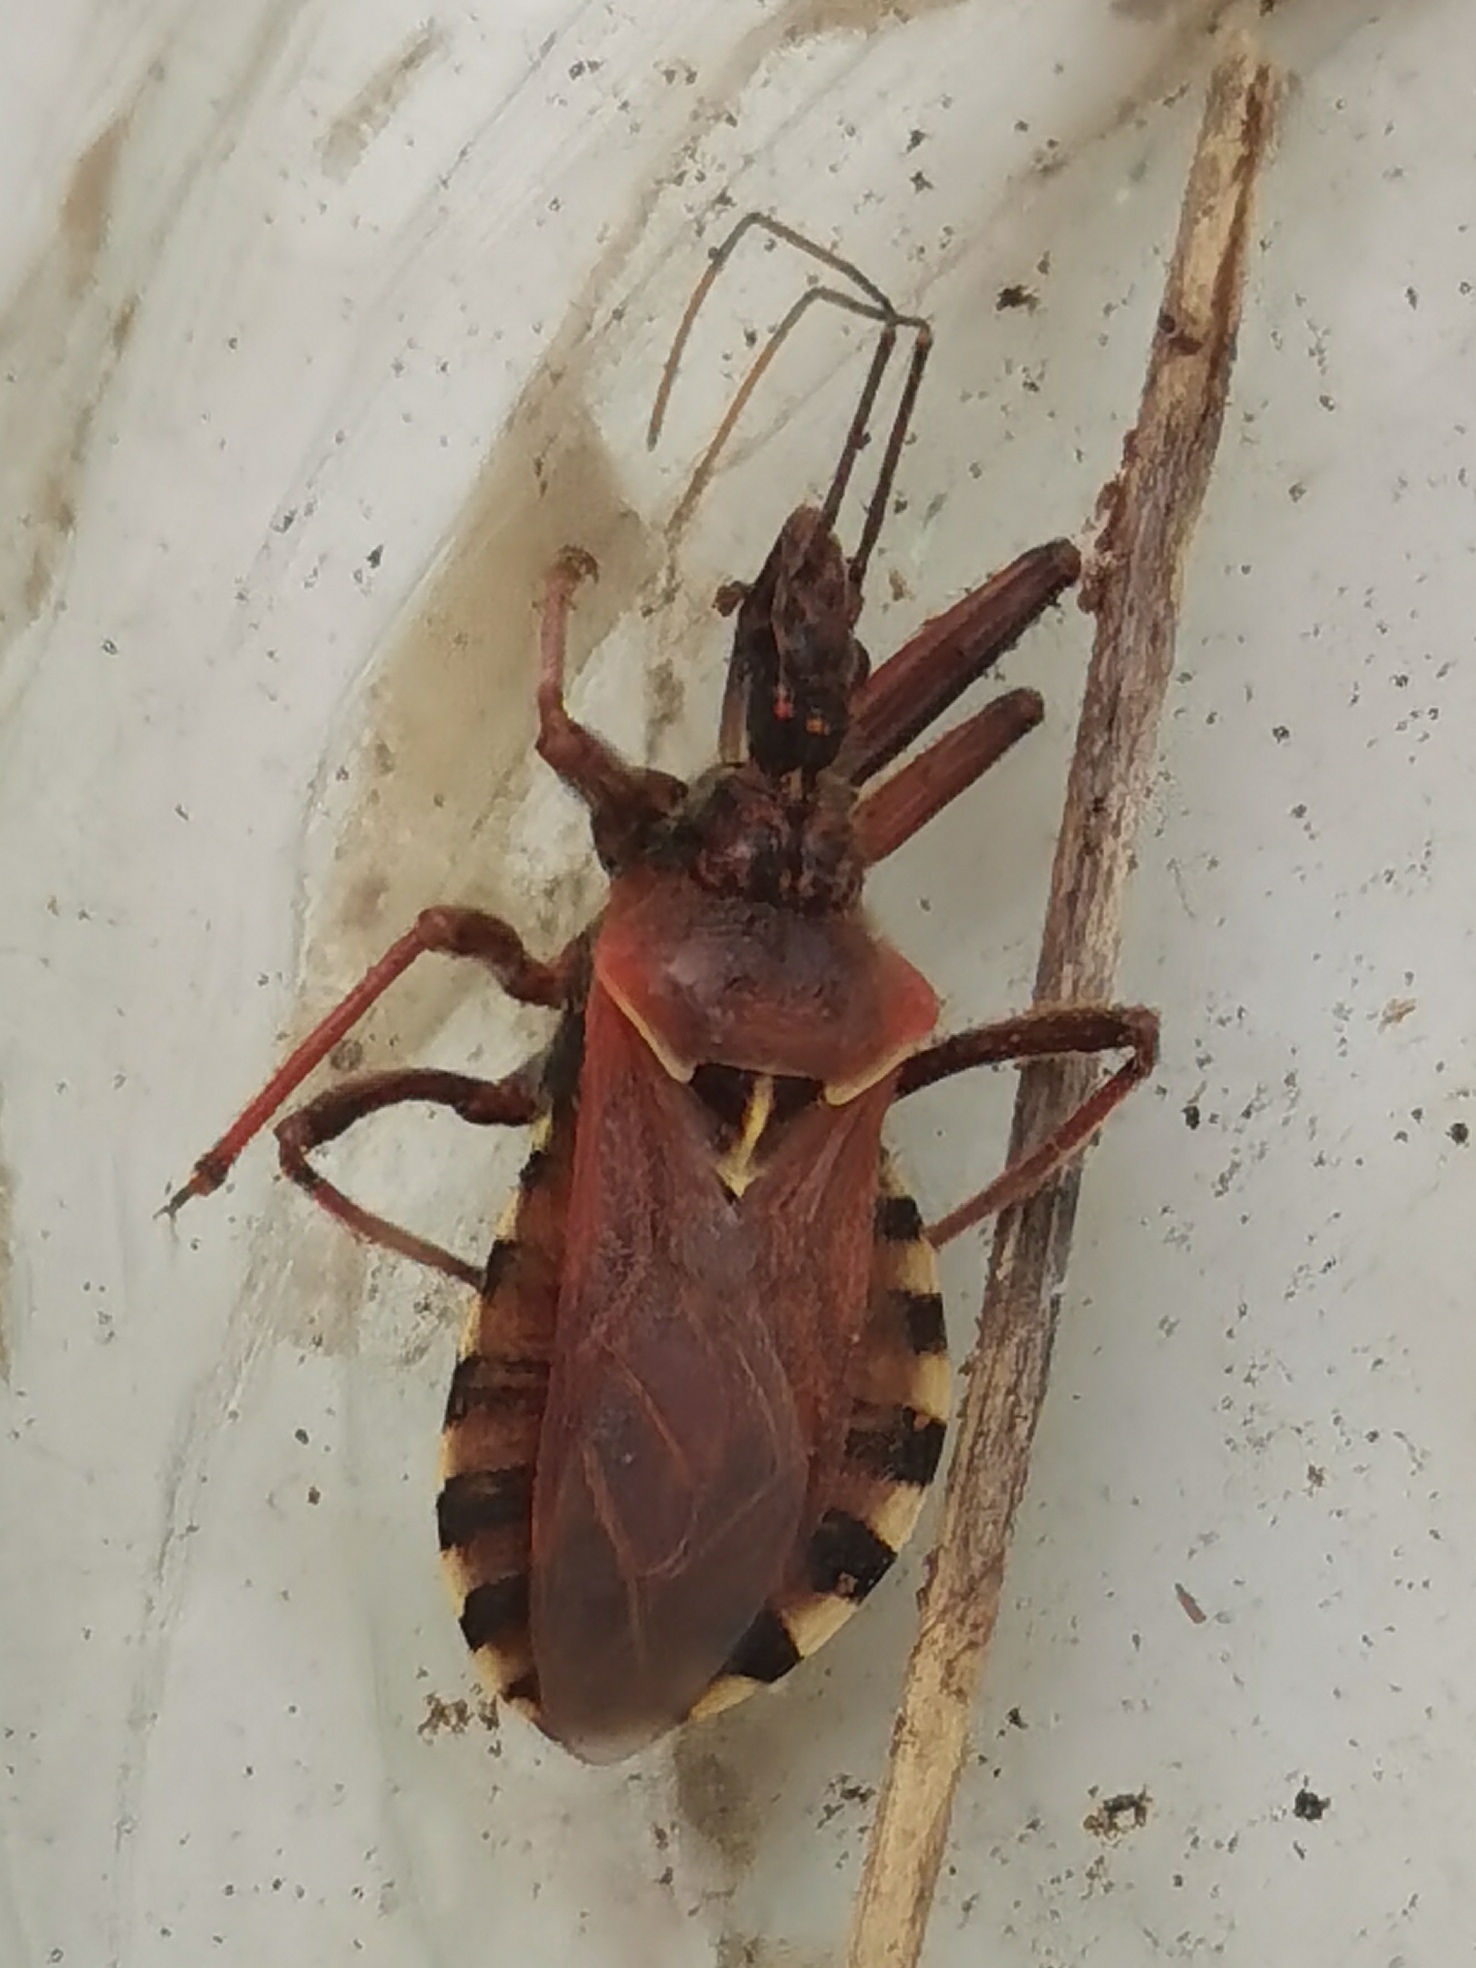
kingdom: Animalia
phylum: Arthropoda
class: Insecta
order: Hemiptera
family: Reduviidae
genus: Rhynocoris
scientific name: Rhynocoris erythropus
